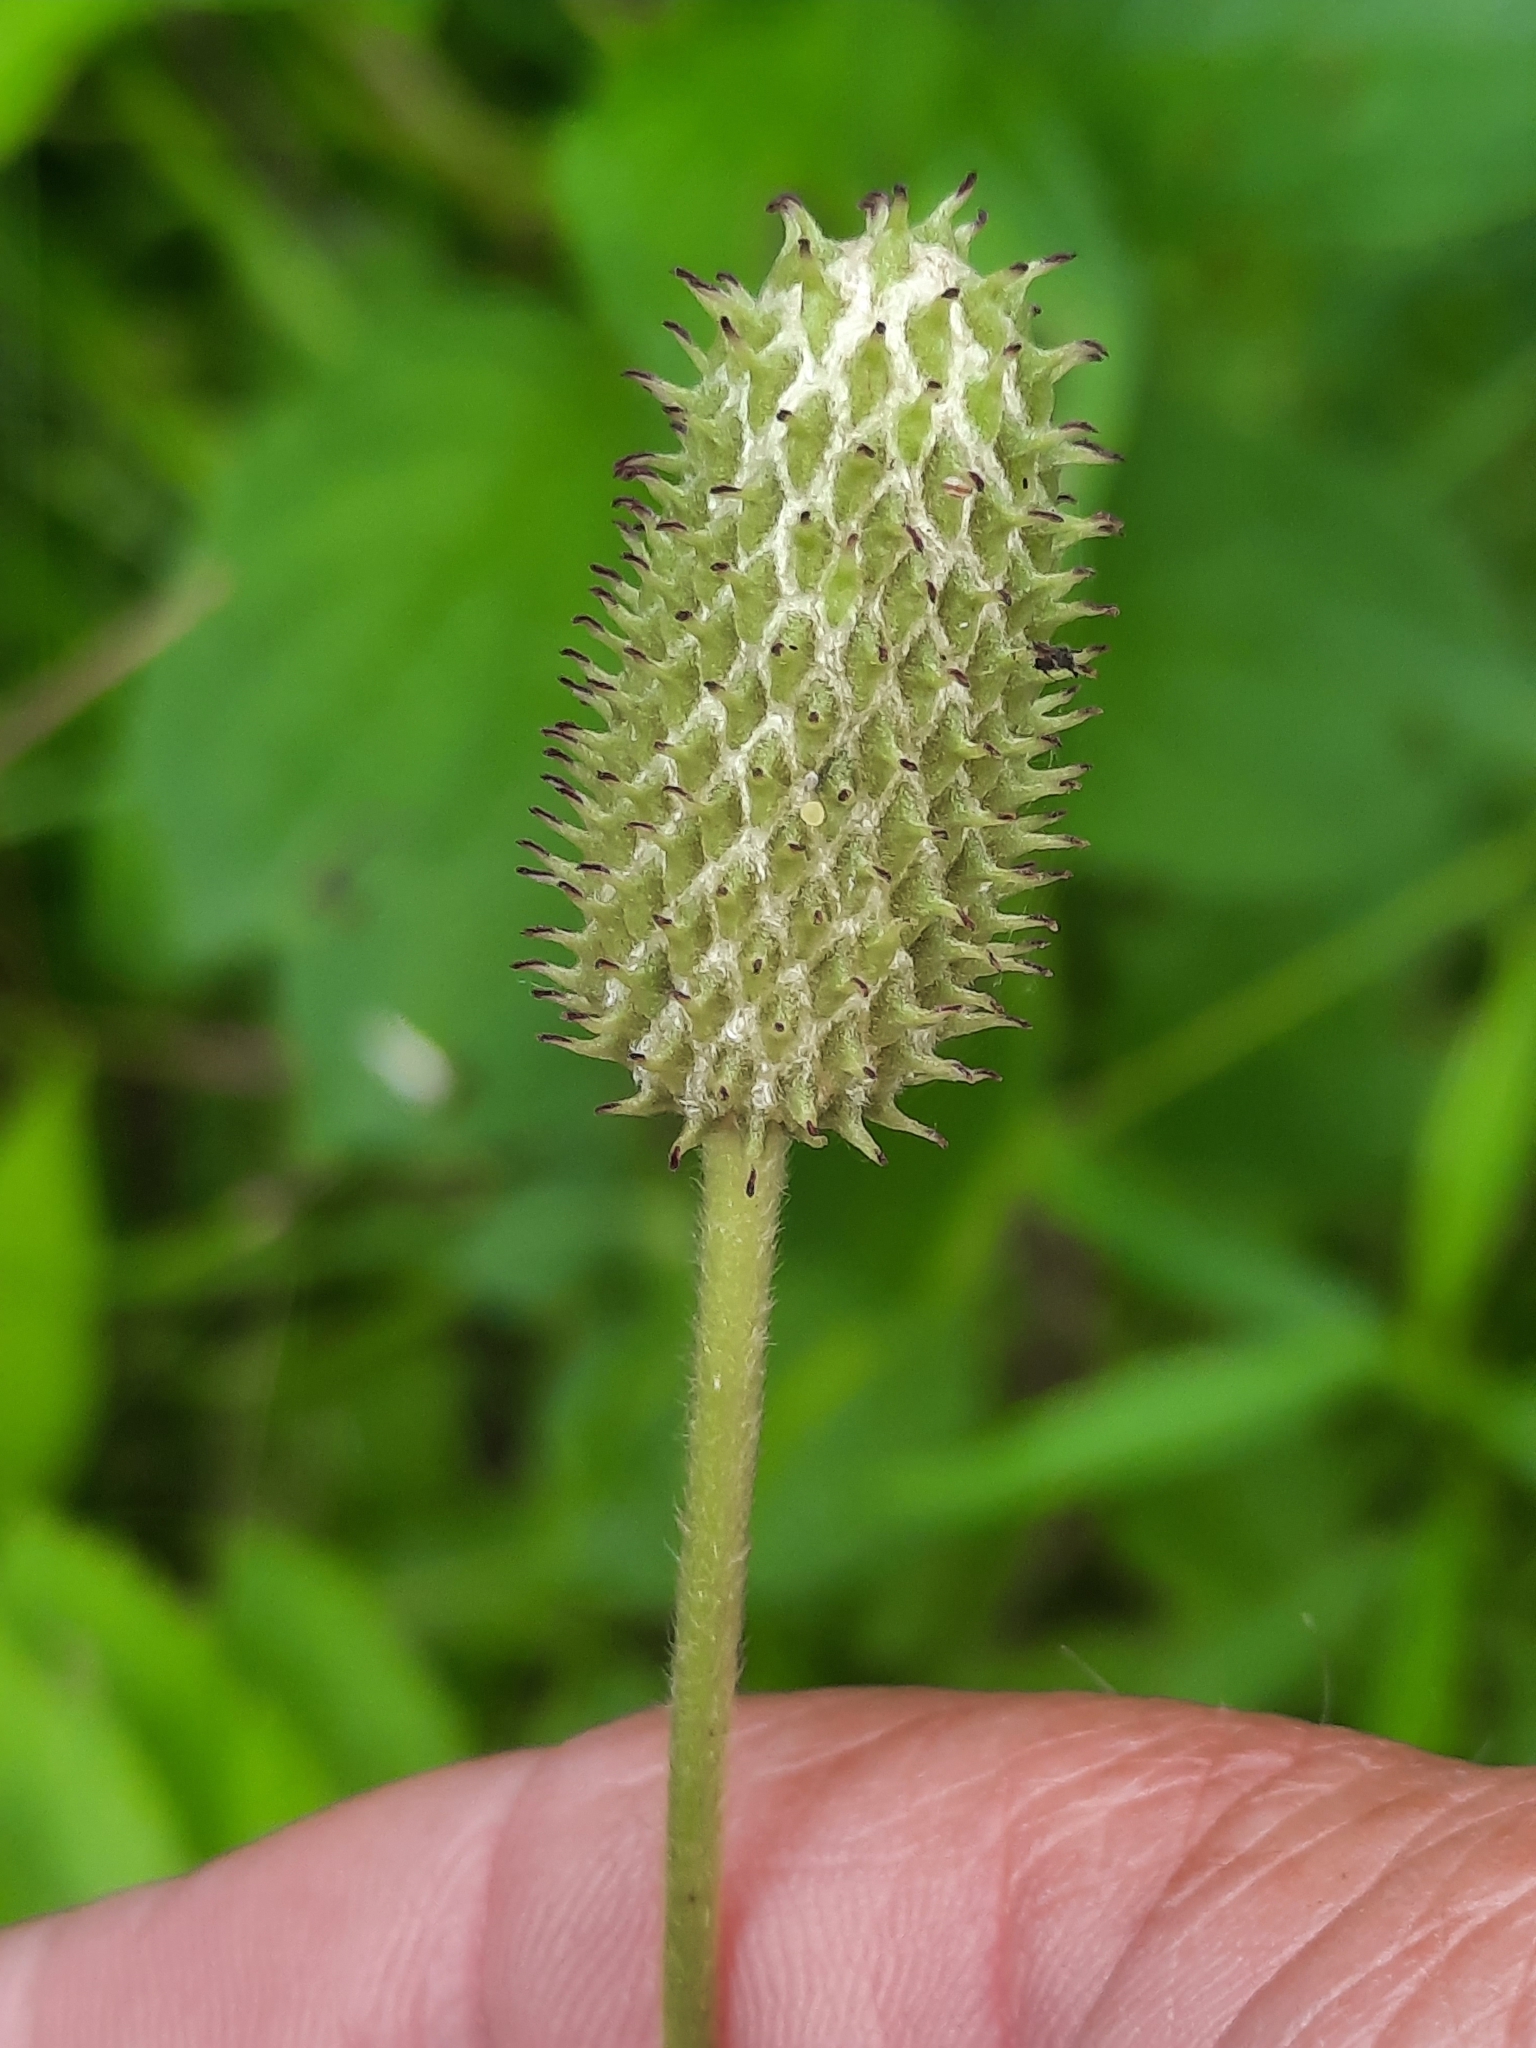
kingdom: Plantae
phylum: Tracheophyta
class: Magnoliopsida
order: Ranunculales
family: Ranunculaceae
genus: Anemone
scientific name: Anemone virginiana
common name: Tall anemone
